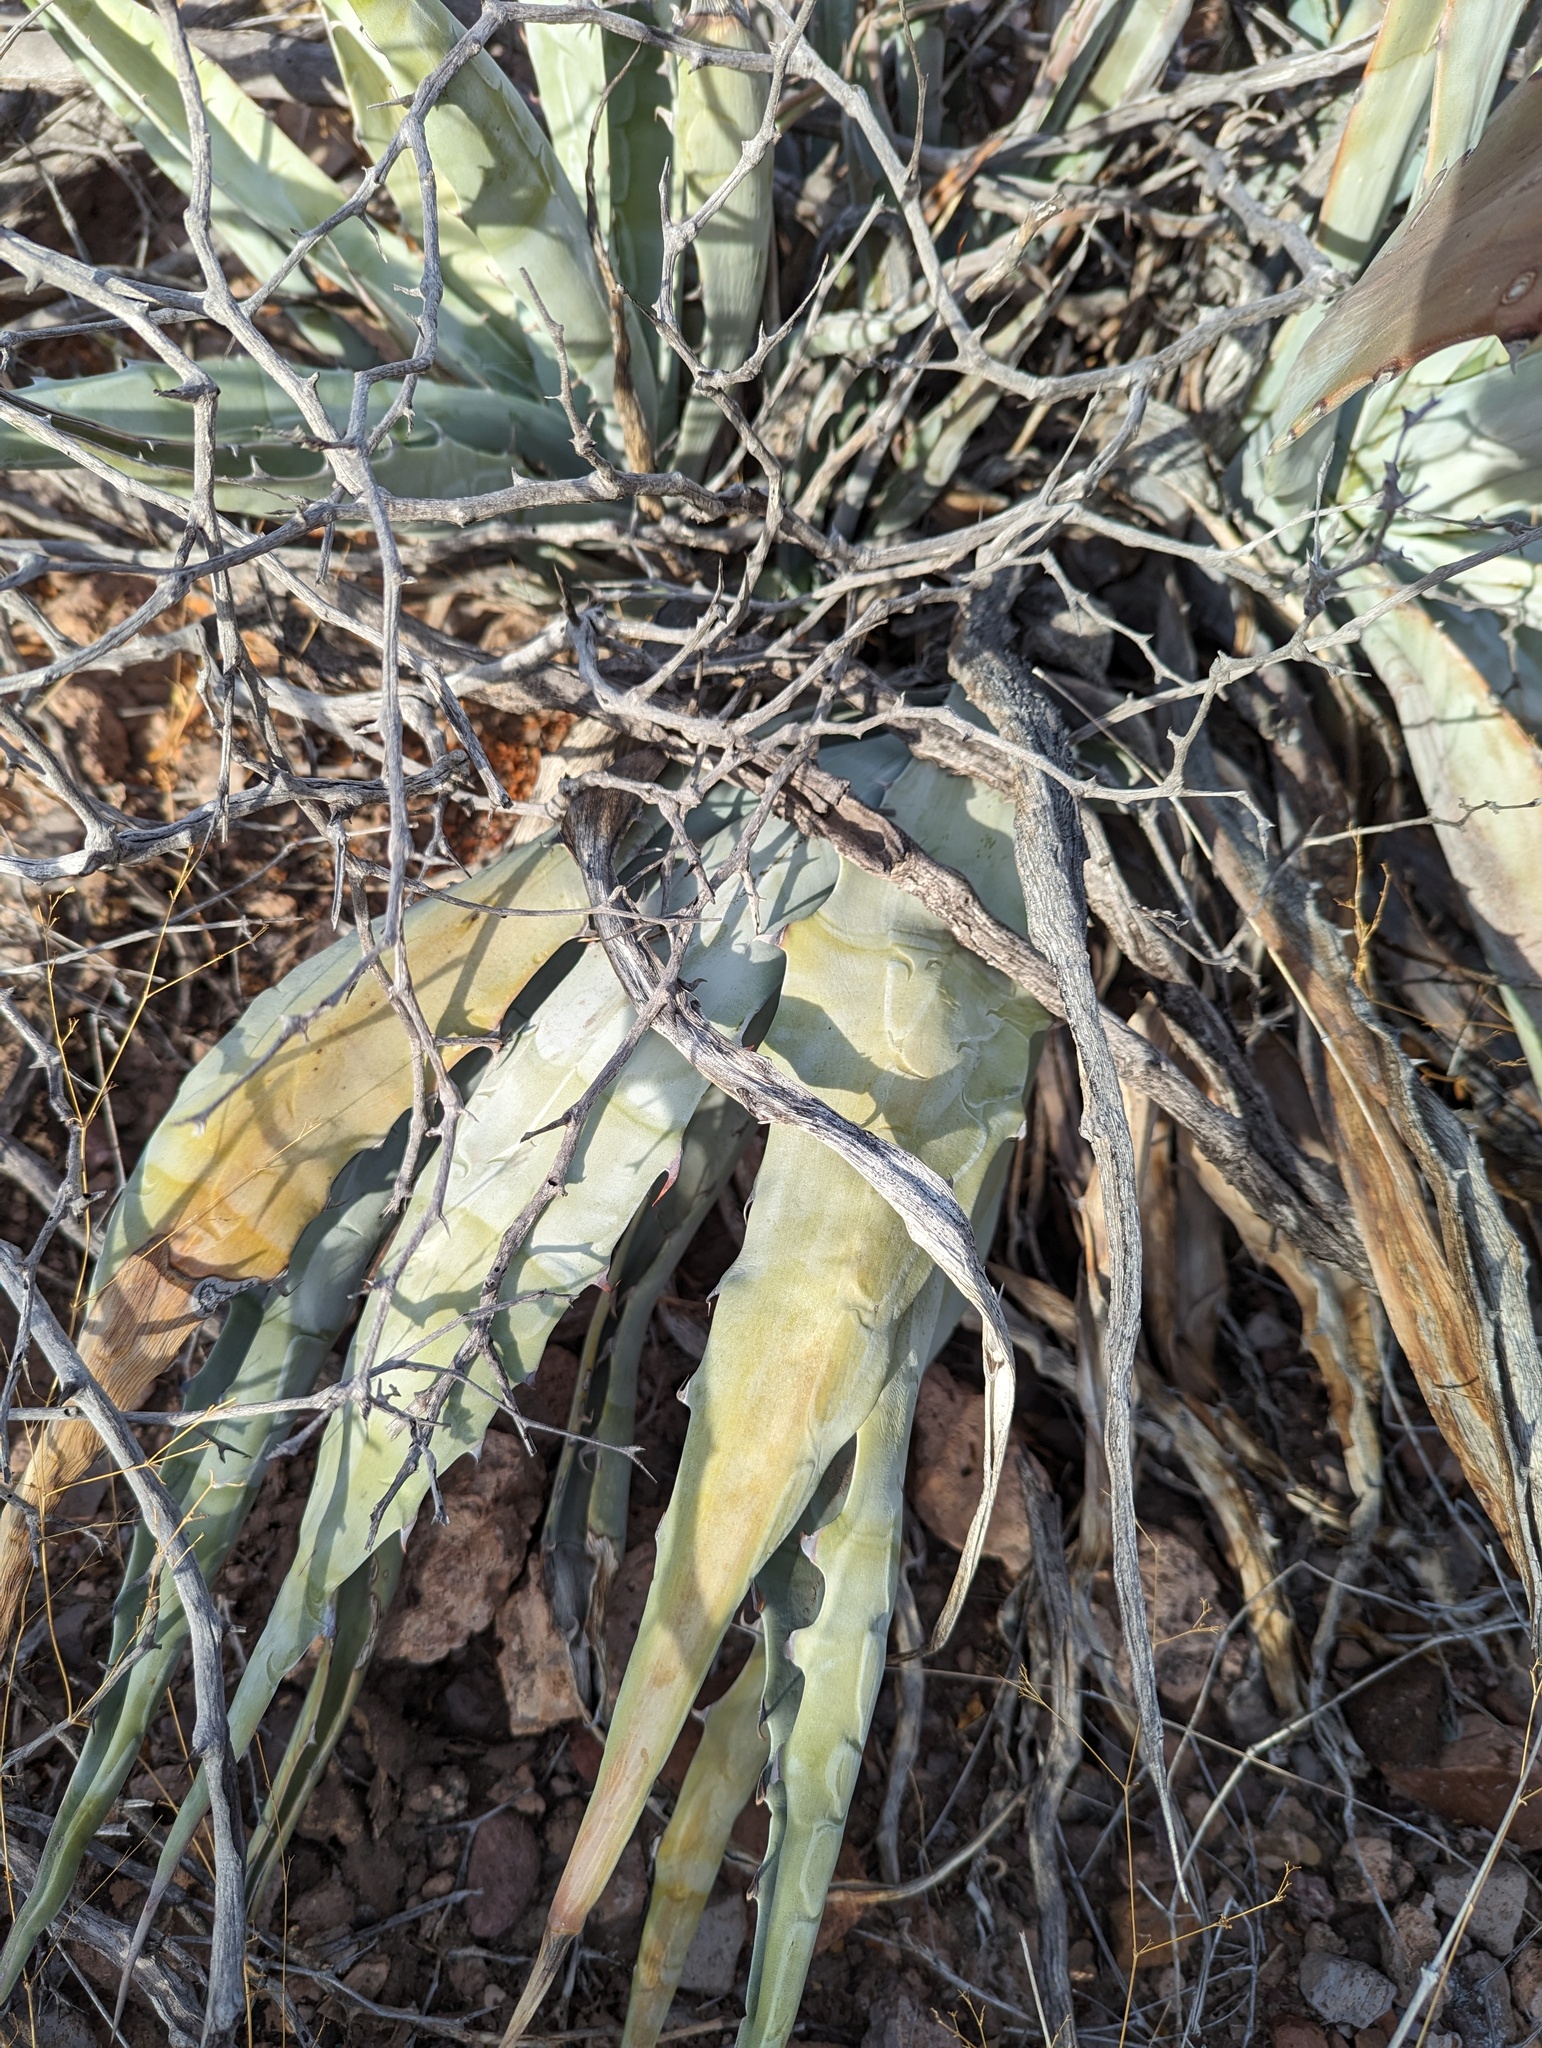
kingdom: Plantae
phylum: Tracheophyta
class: Liliopsida
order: Asparagales
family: Asparagaceae
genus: Agave
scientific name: Agave sobria
